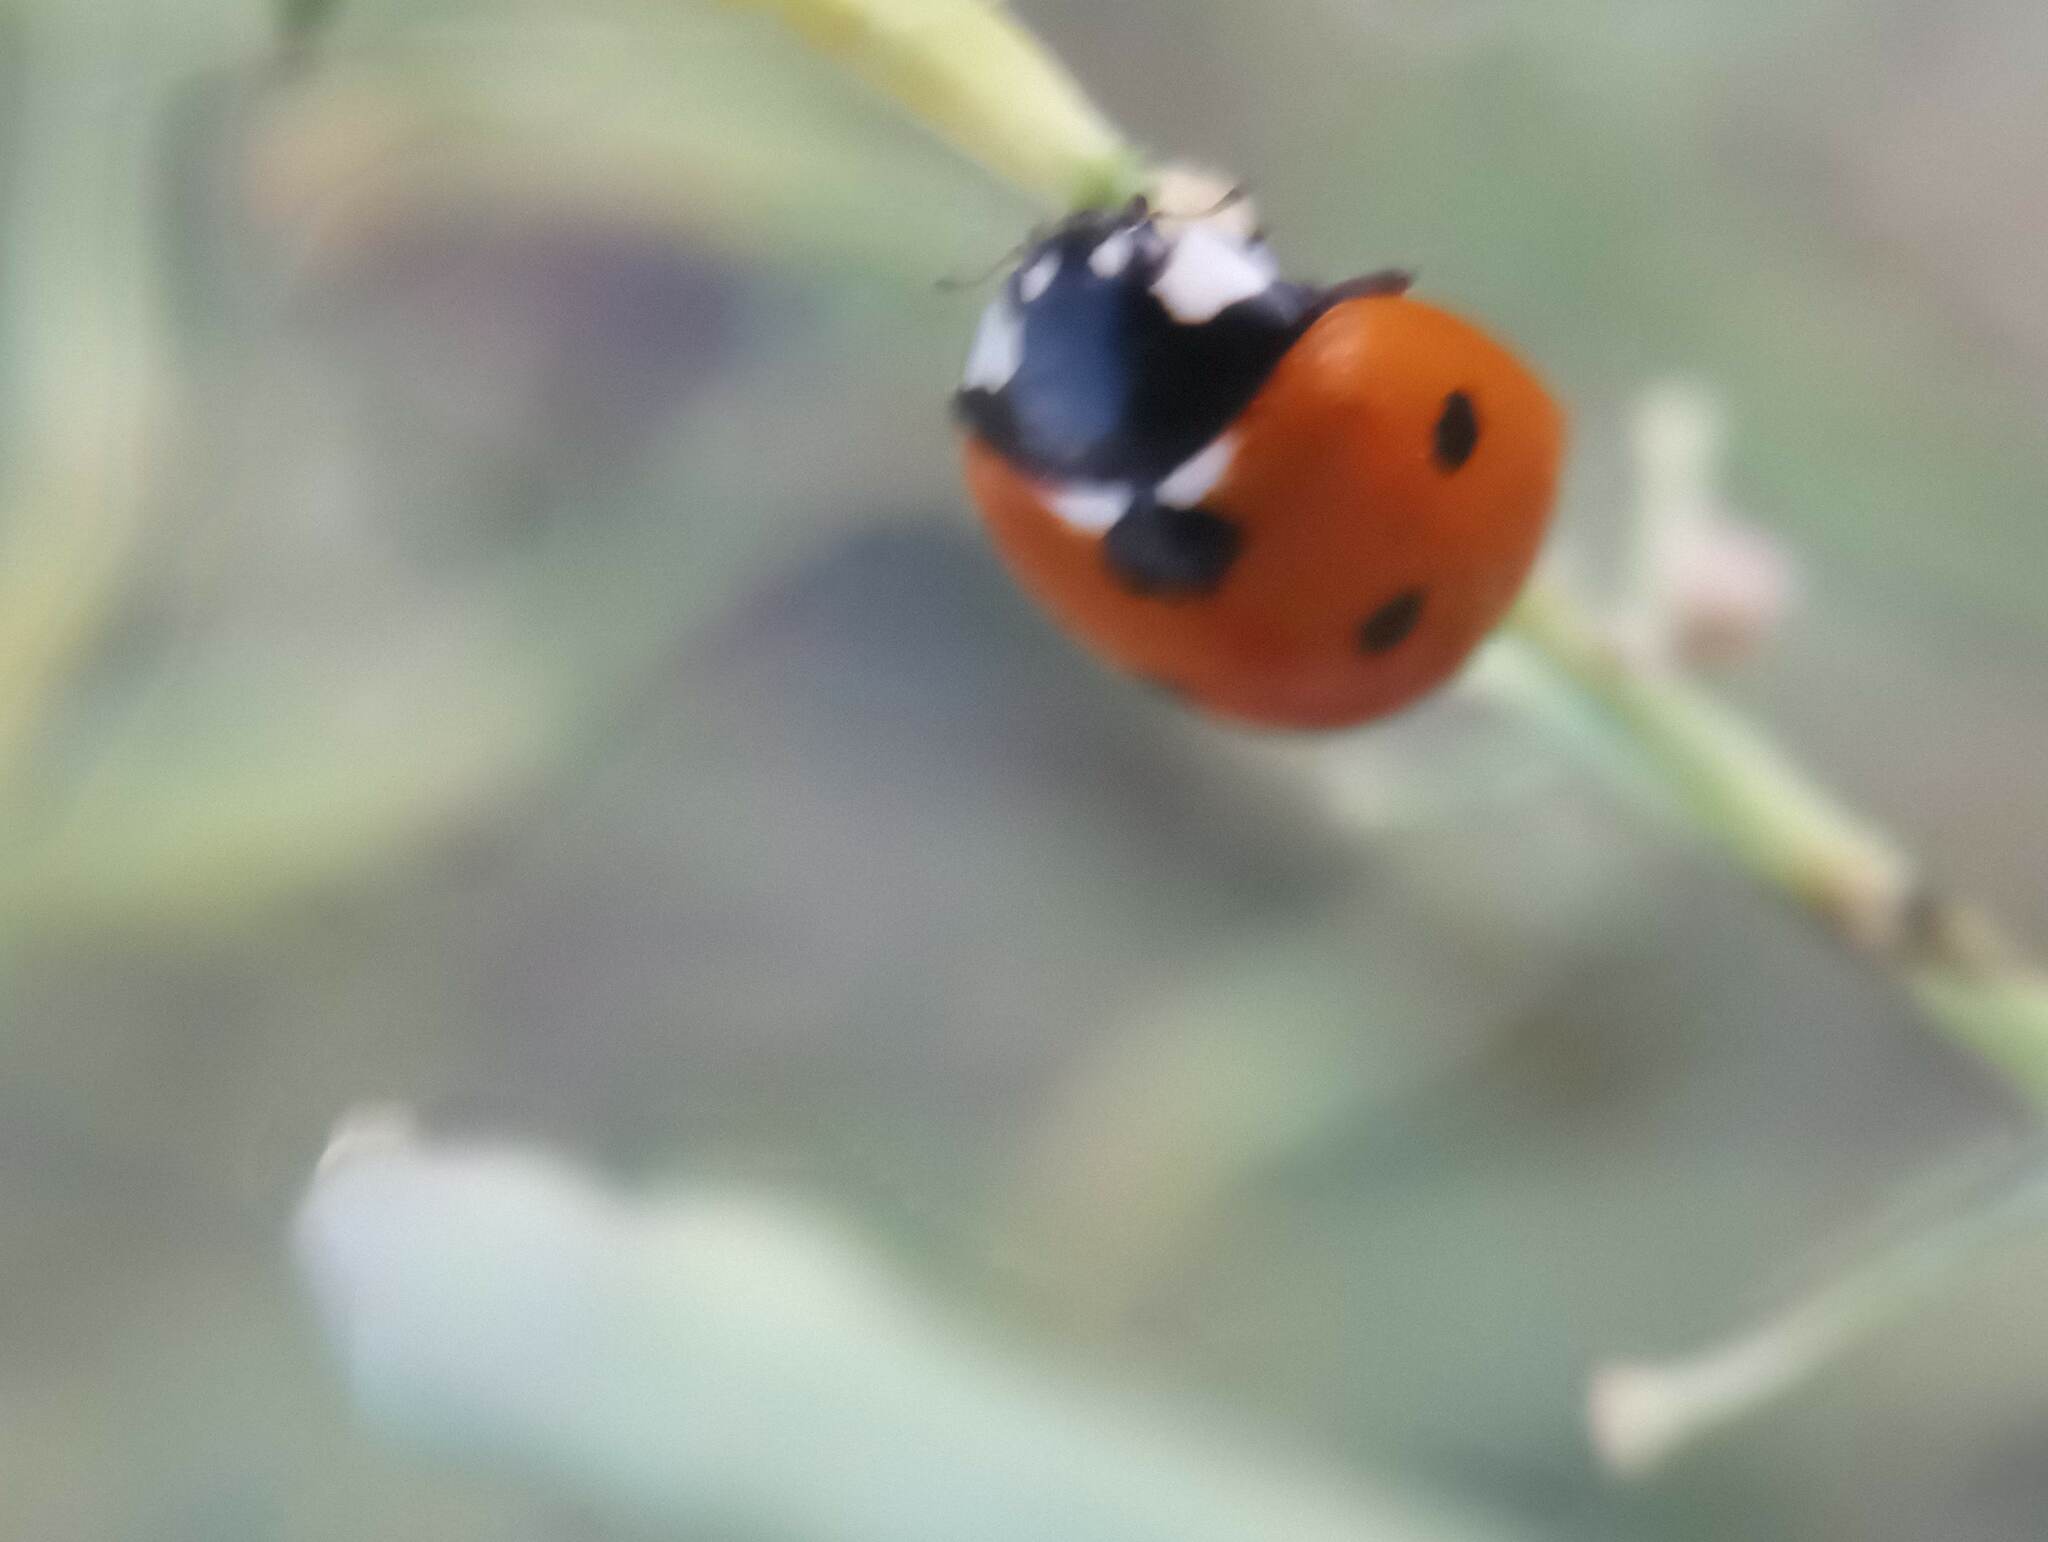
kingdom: Animalia
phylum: Arthropoda
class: Insecta
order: Coleoptera
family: Coccinellidae
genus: Coccinella
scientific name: Coccinella septempunctata
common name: Sevenspotted lady beetle
